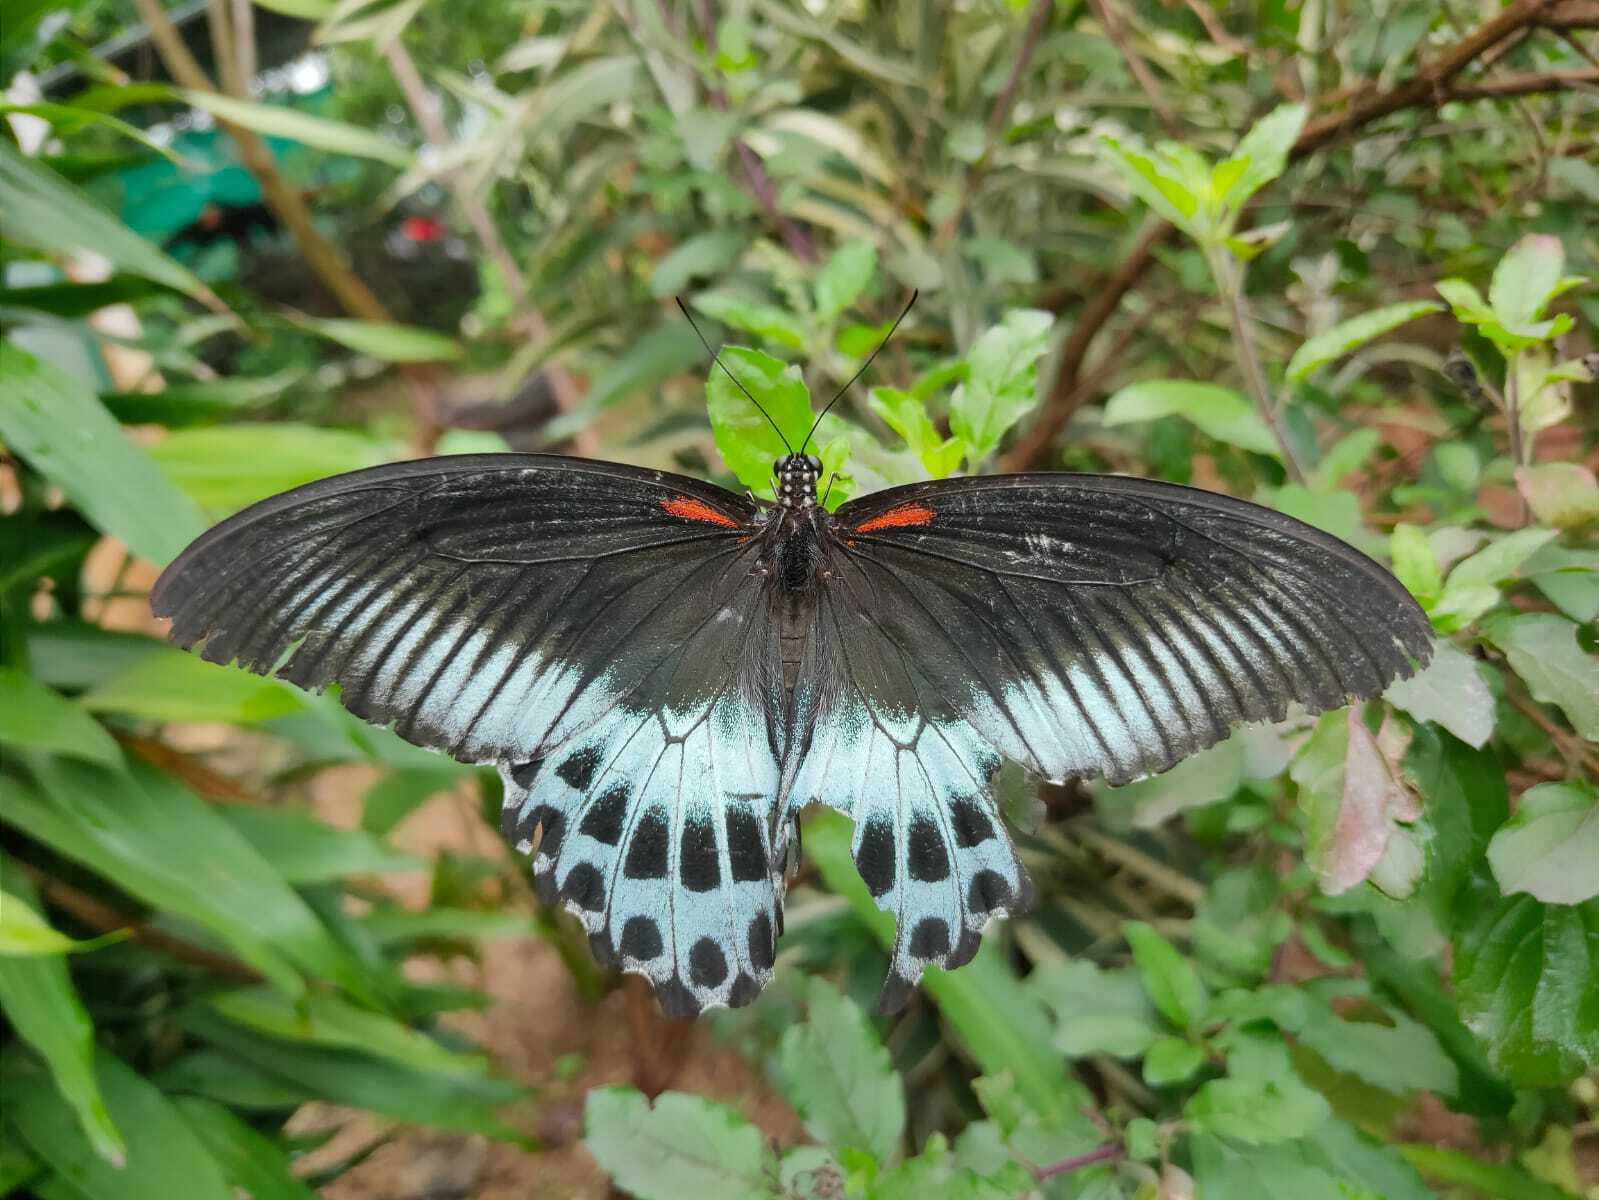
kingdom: Animalia
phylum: Arthropoda
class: Insecta
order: Lepidoptera
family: Papilionidae
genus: Papilio
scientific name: Papilio memnon
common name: Great mormon
